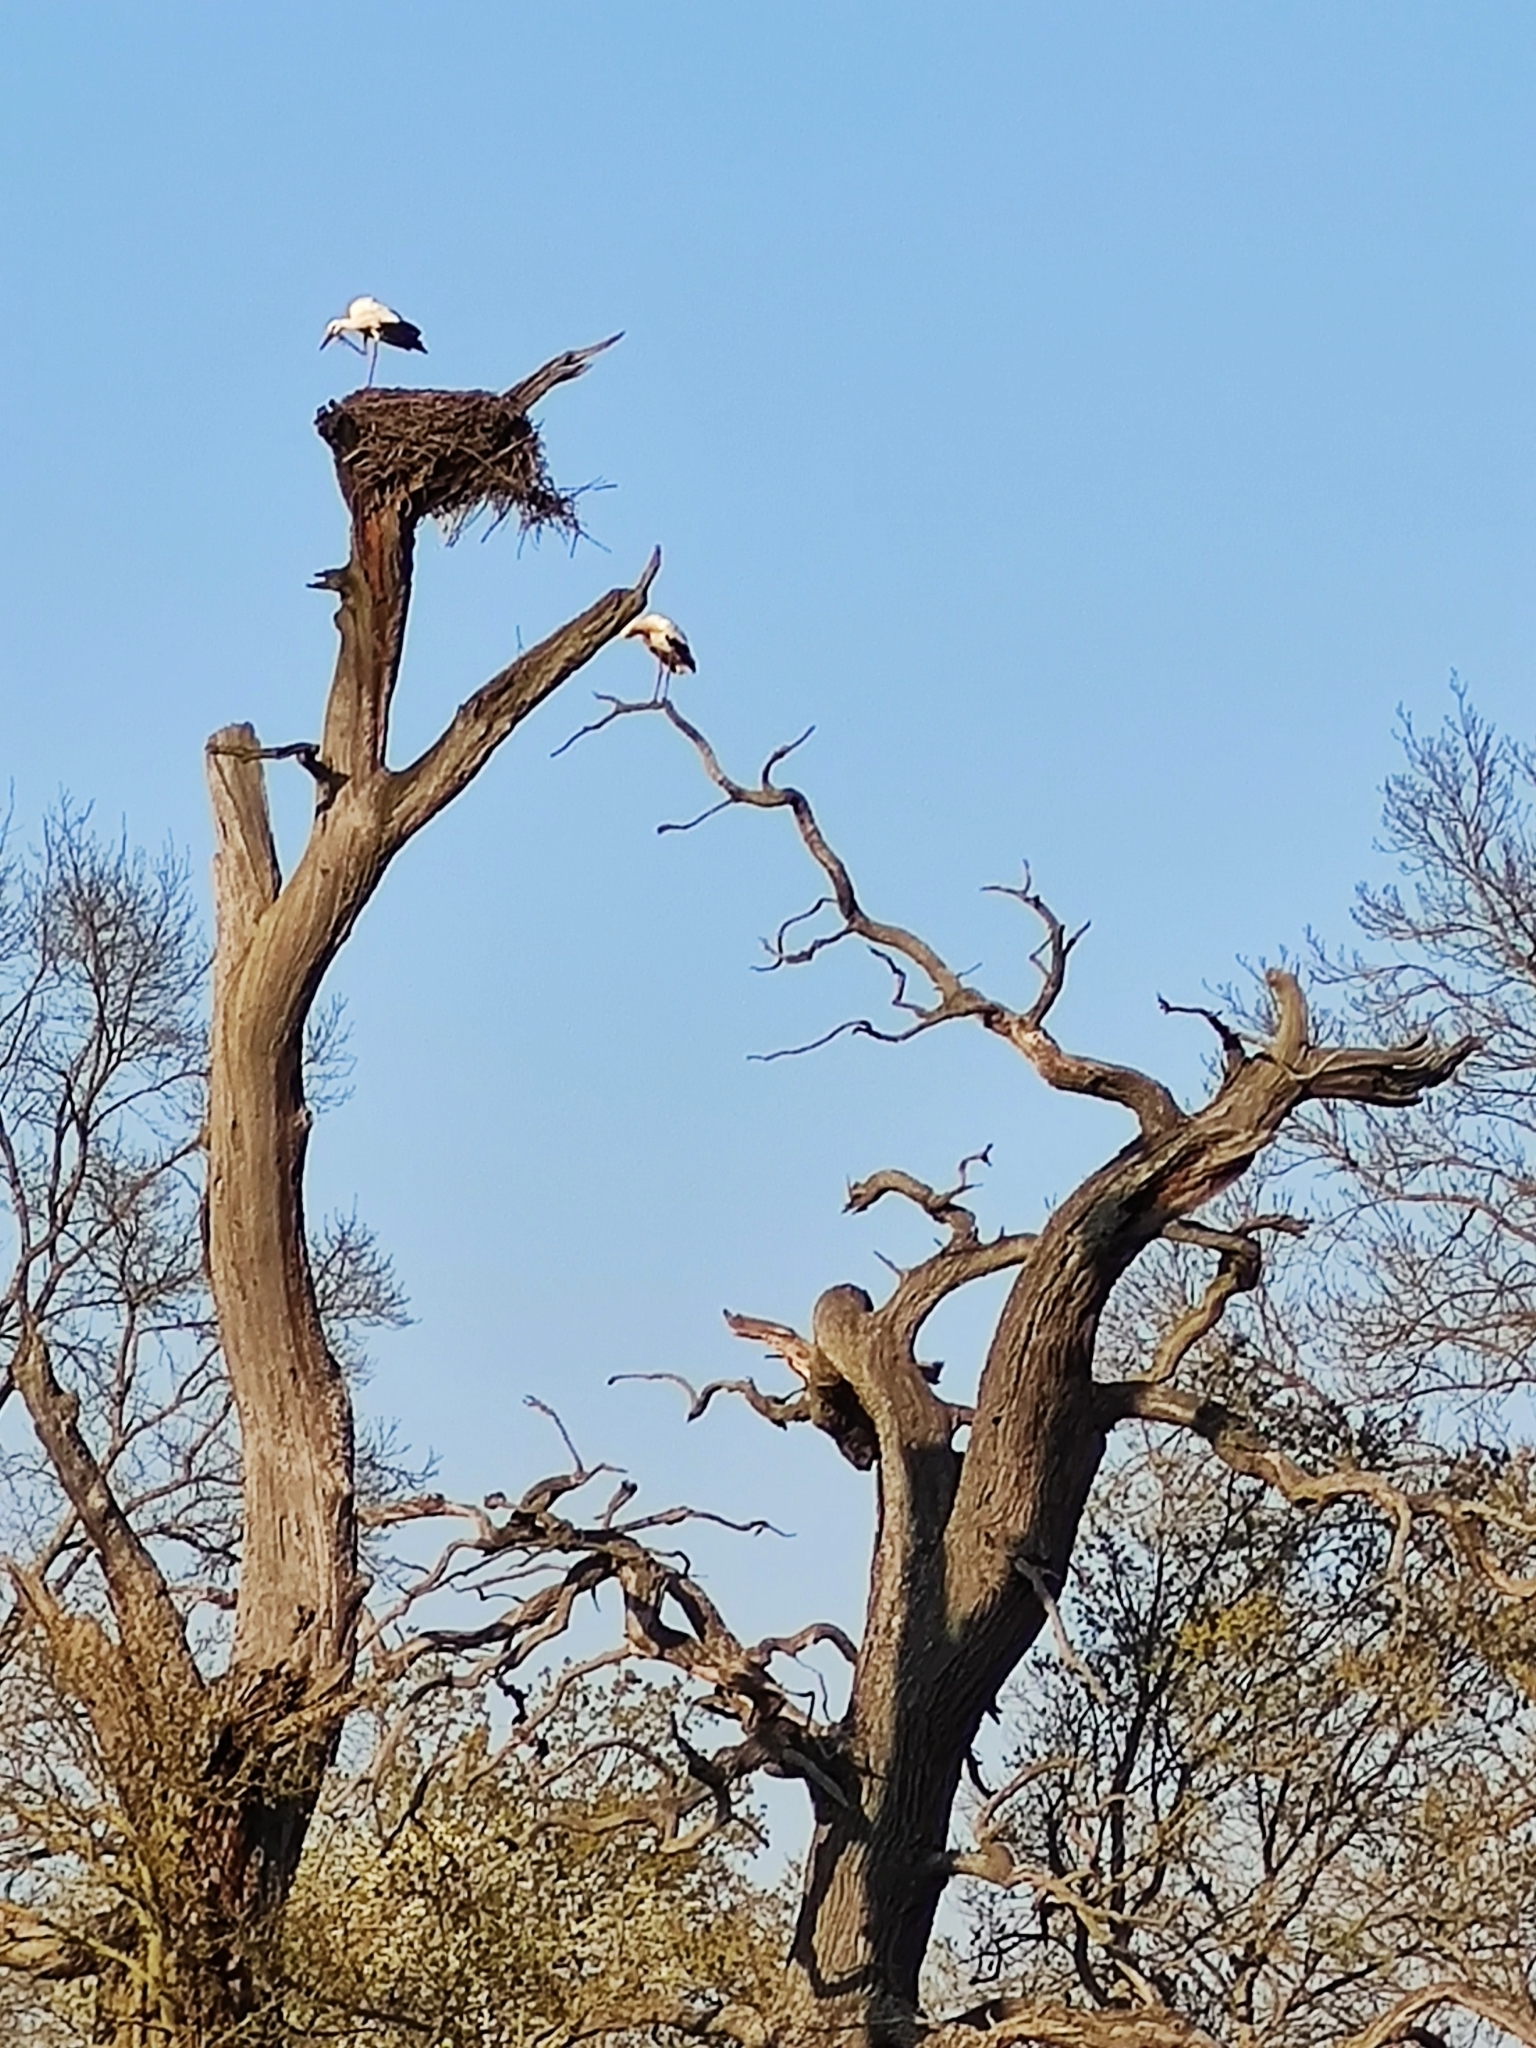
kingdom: Animalia
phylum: Chordata
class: Aves
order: Ciconiiformes
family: Ciconiidae
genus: Ciconia
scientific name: Ciconia ciconia
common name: White stork
